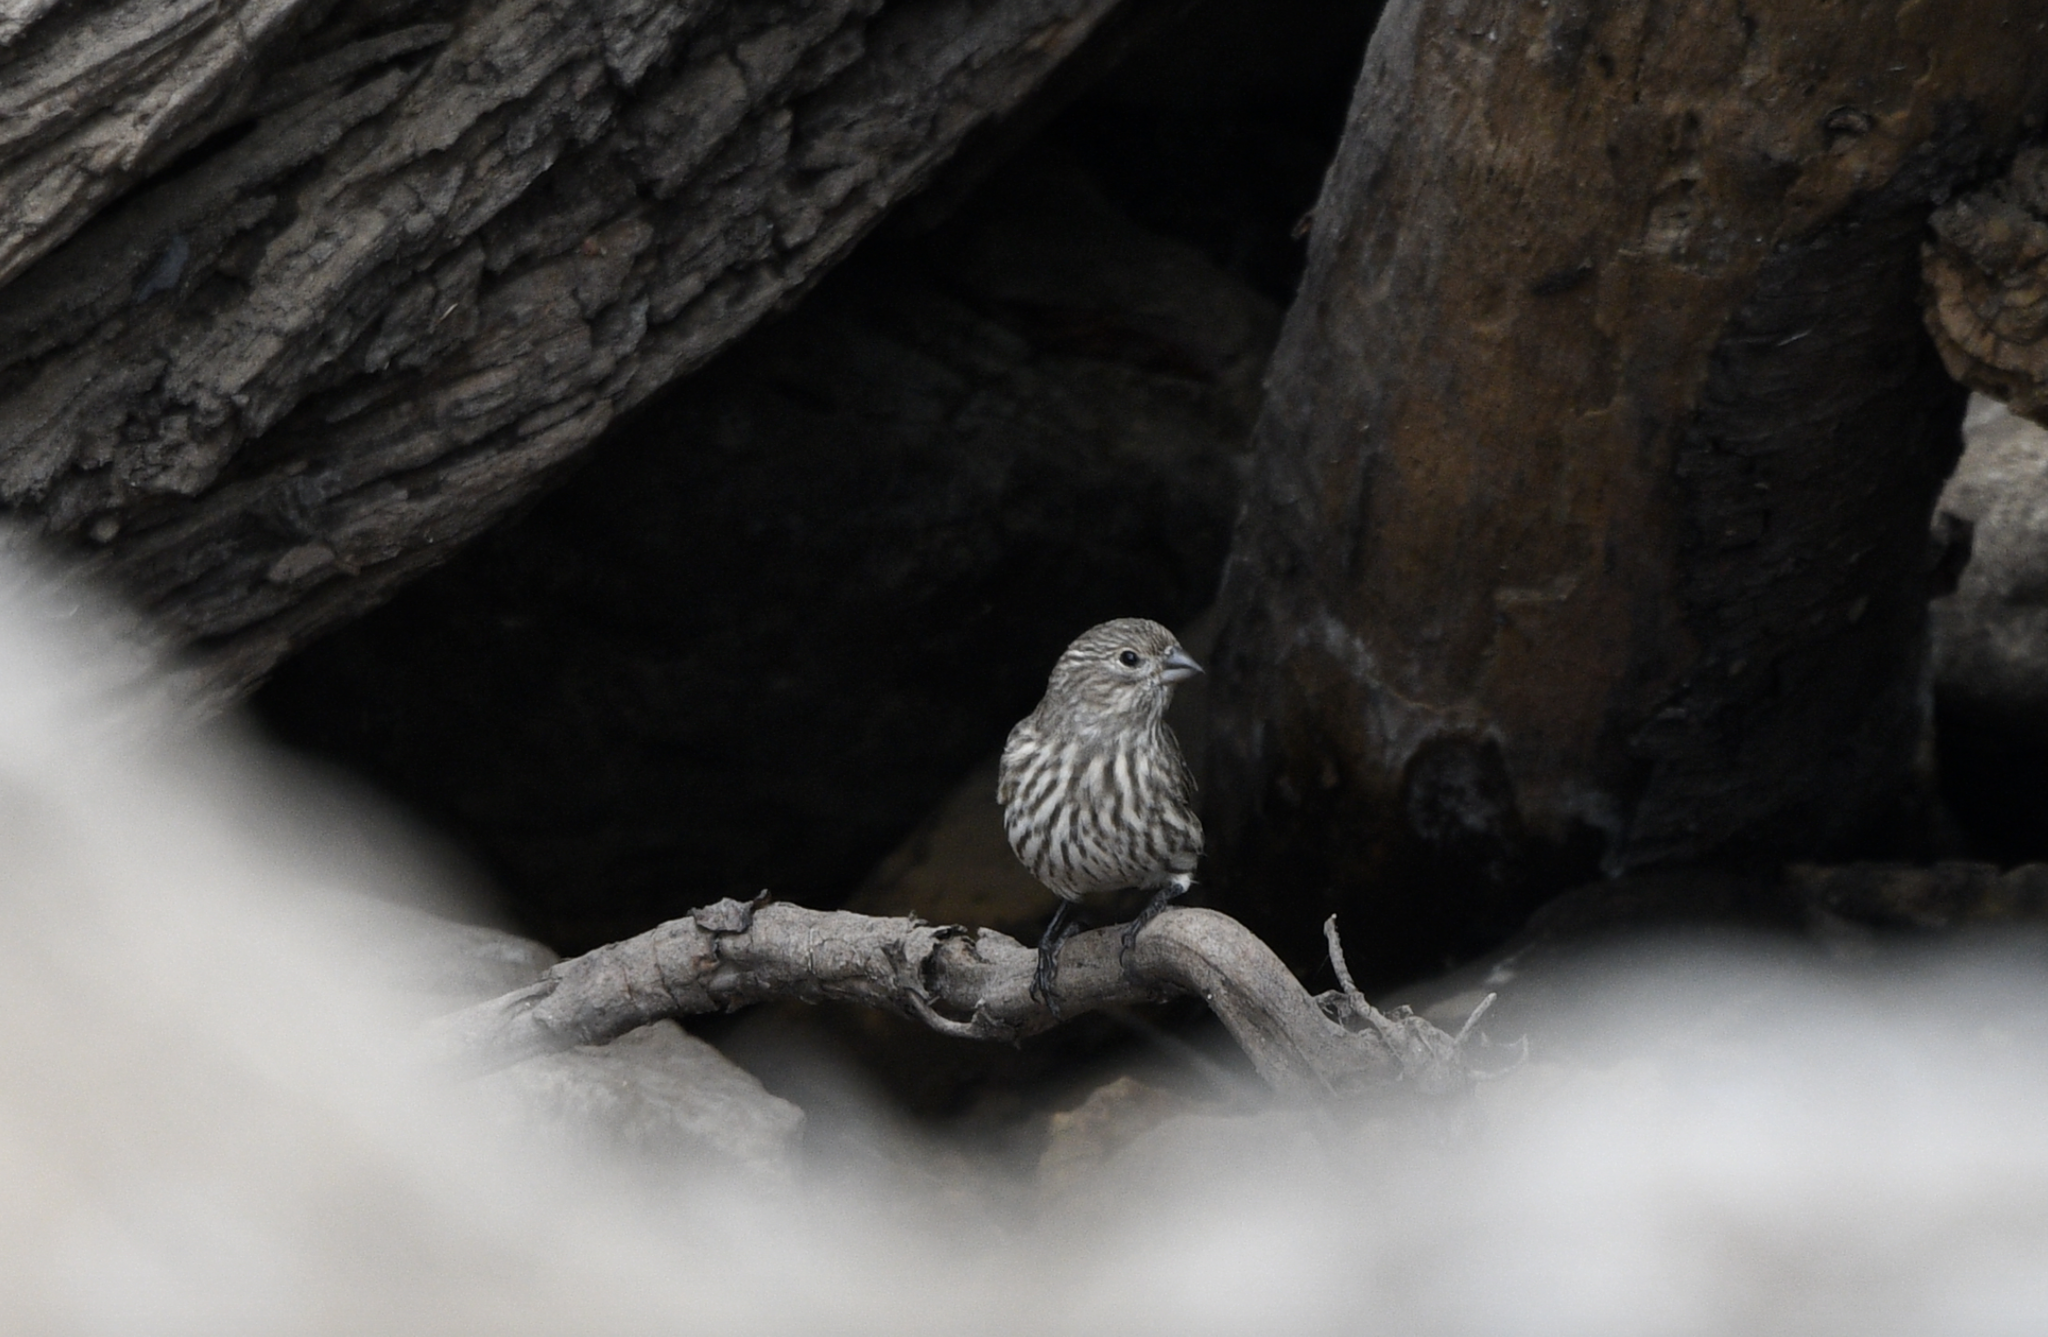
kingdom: Animalia
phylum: Chordata
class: Aves
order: Passeriformes
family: Fringillidae
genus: Haemorhous
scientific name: Haemorhous mexicanus
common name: House finch
